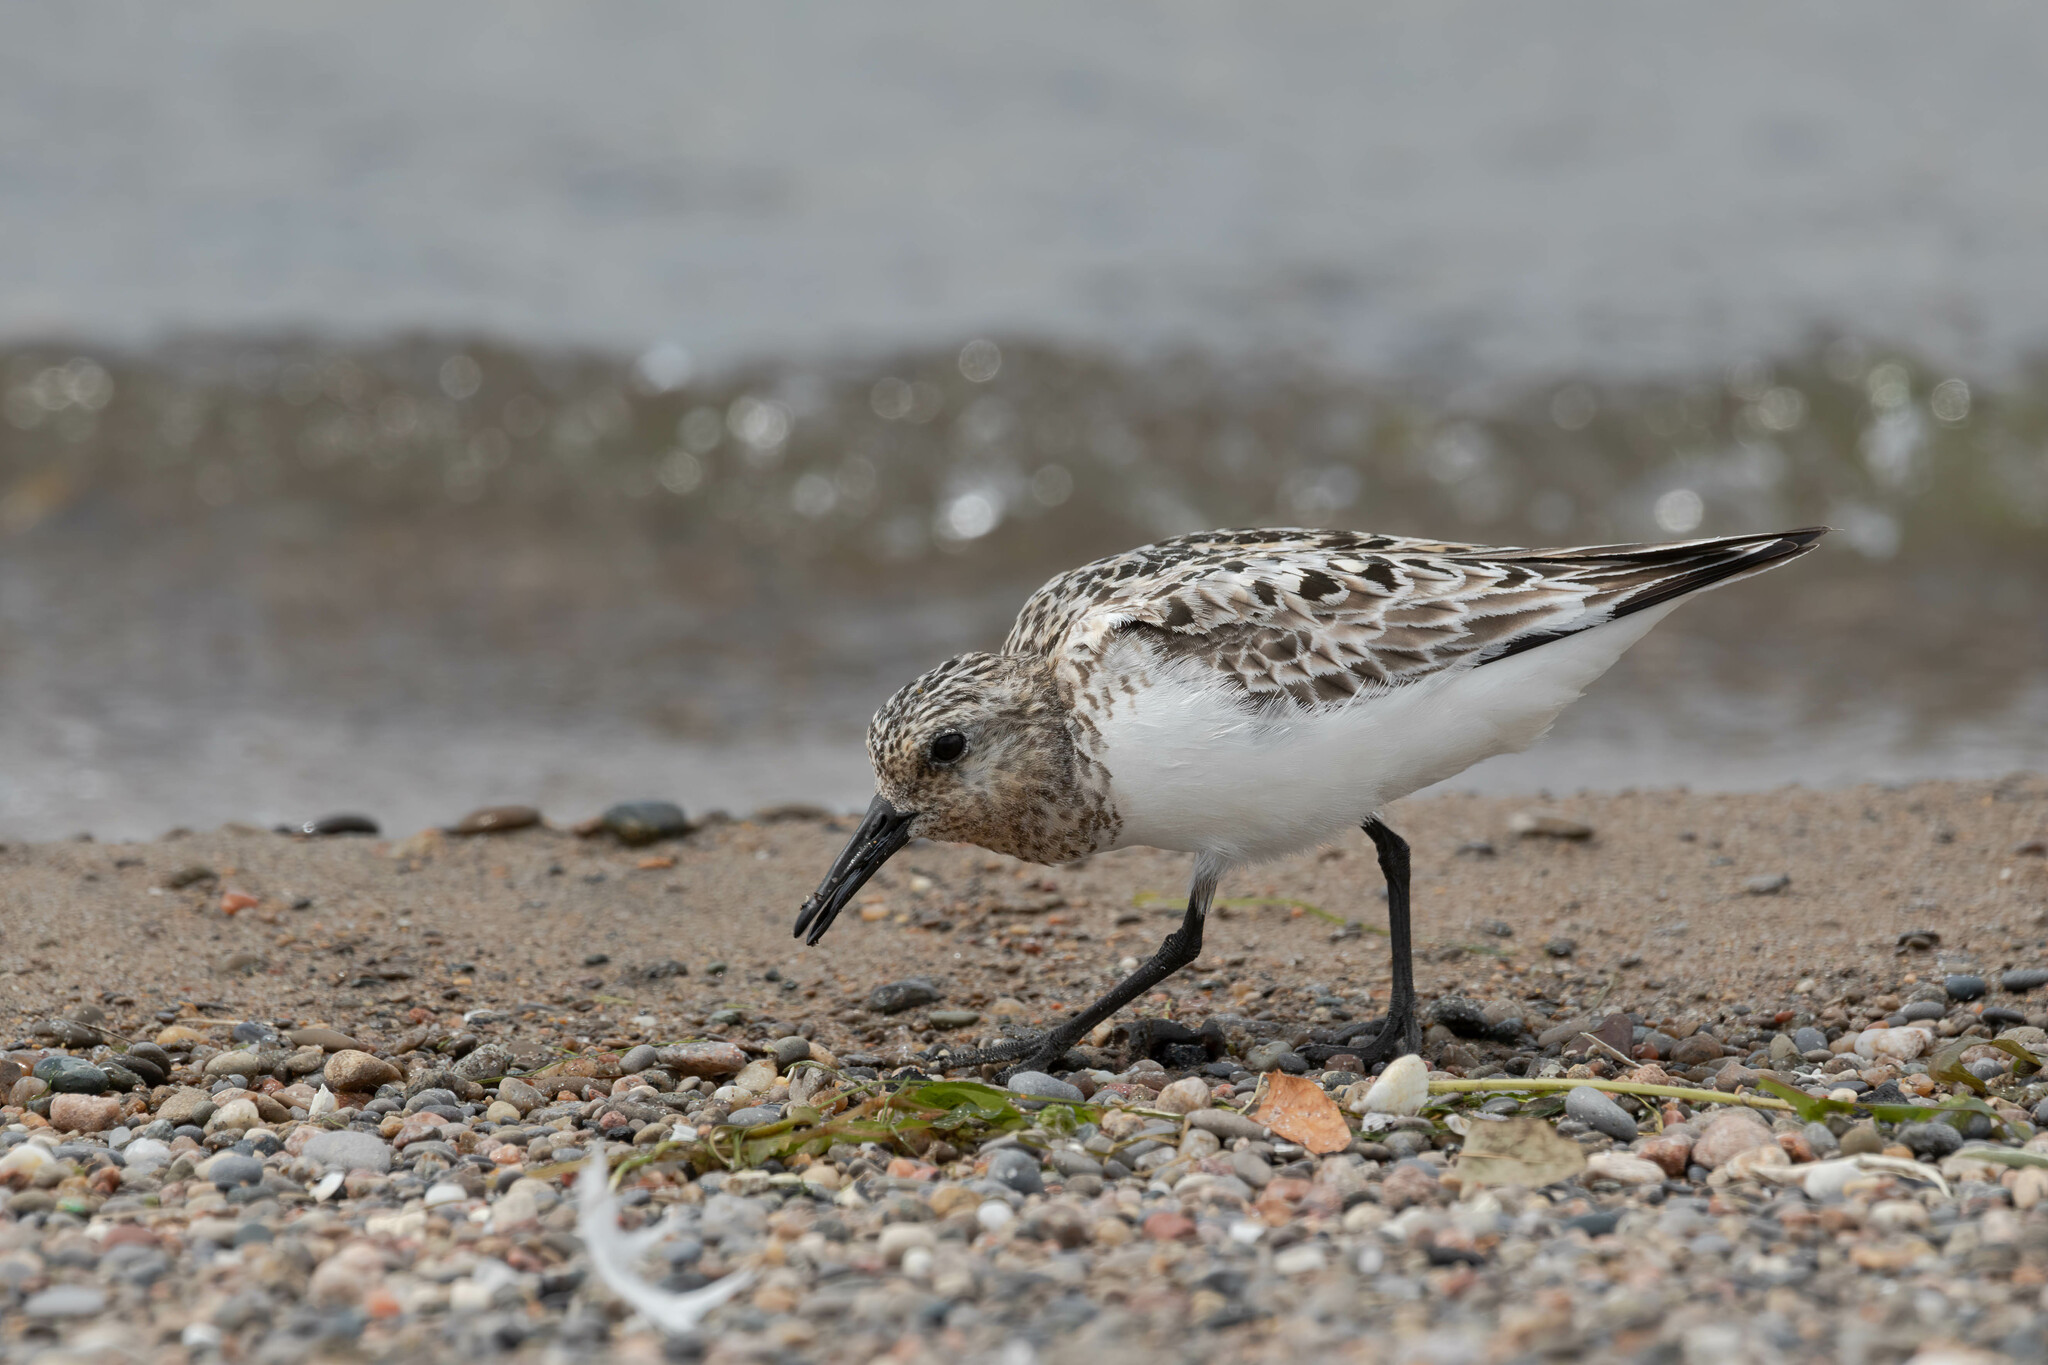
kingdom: Animalia
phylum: Chordata
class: Aves
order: Charadriiformes
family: Scolopacidae
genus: Calidris
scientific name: Calidris alba
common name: Sanderling
